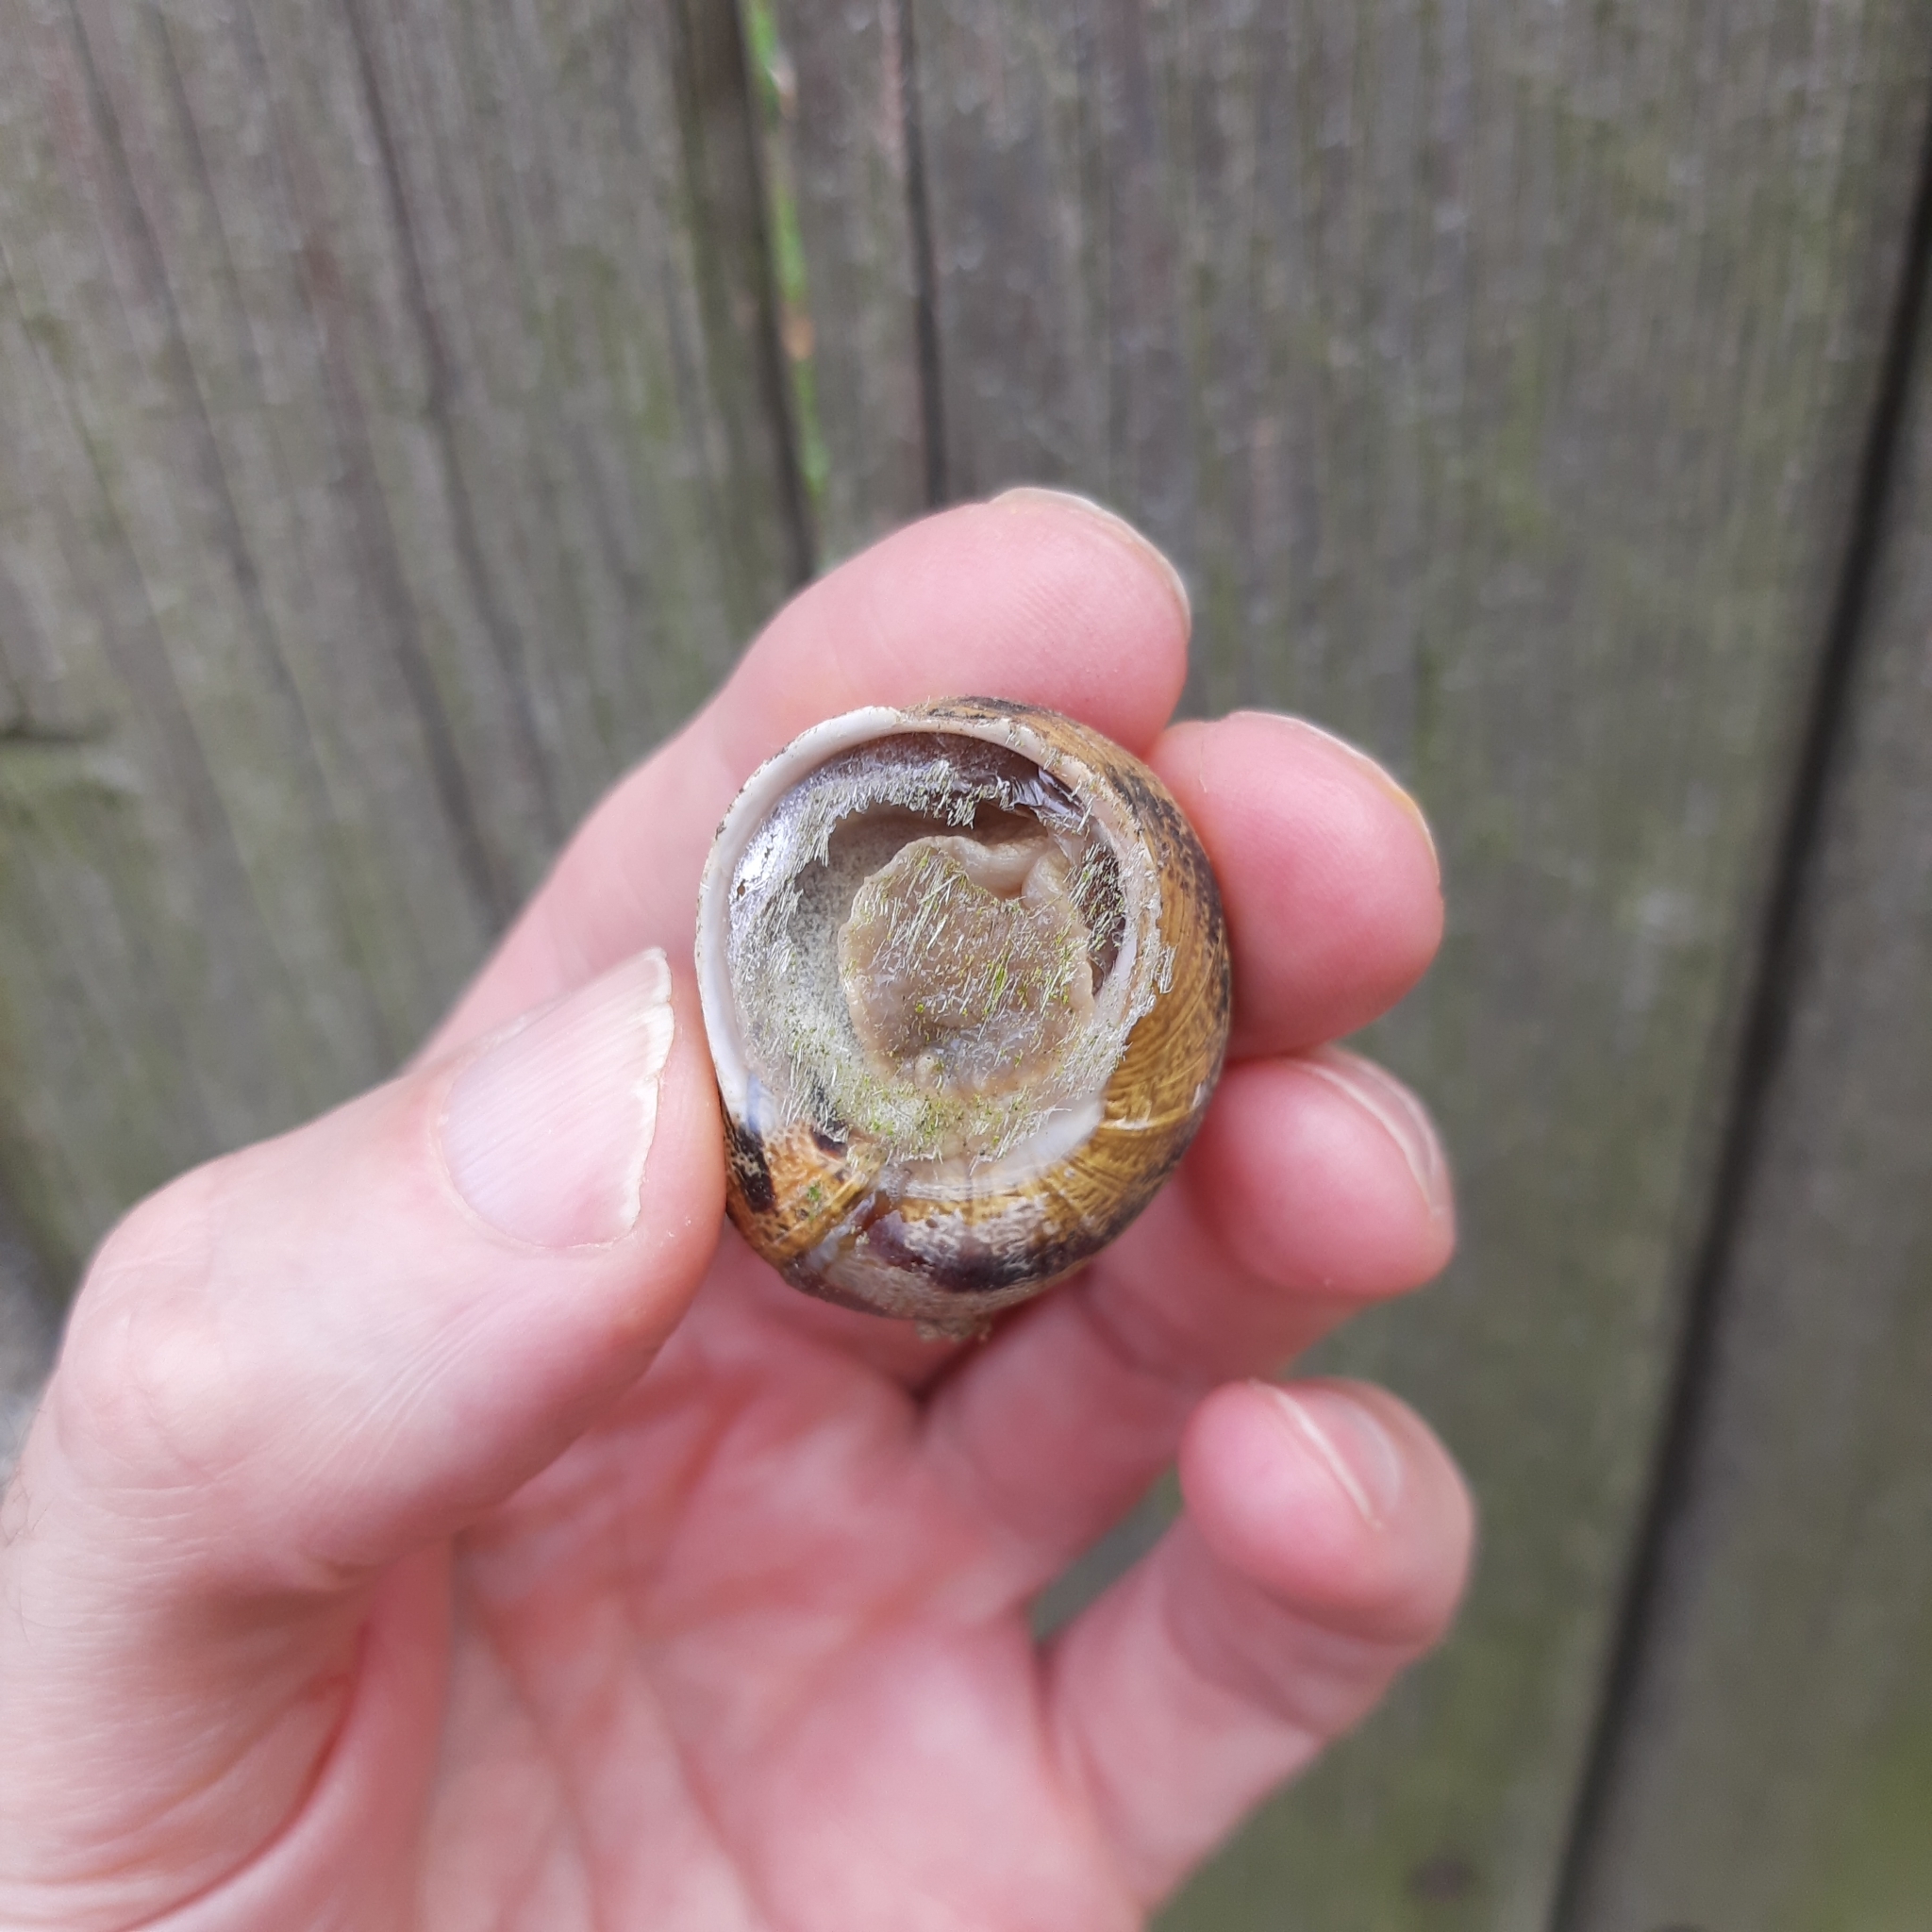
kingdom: Animalia
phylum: Mollusca
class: Gastropoda
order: Stylommatophora
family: Helicidae
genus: Cornu
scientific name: Cornu aspersum
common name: Brown garden snail
